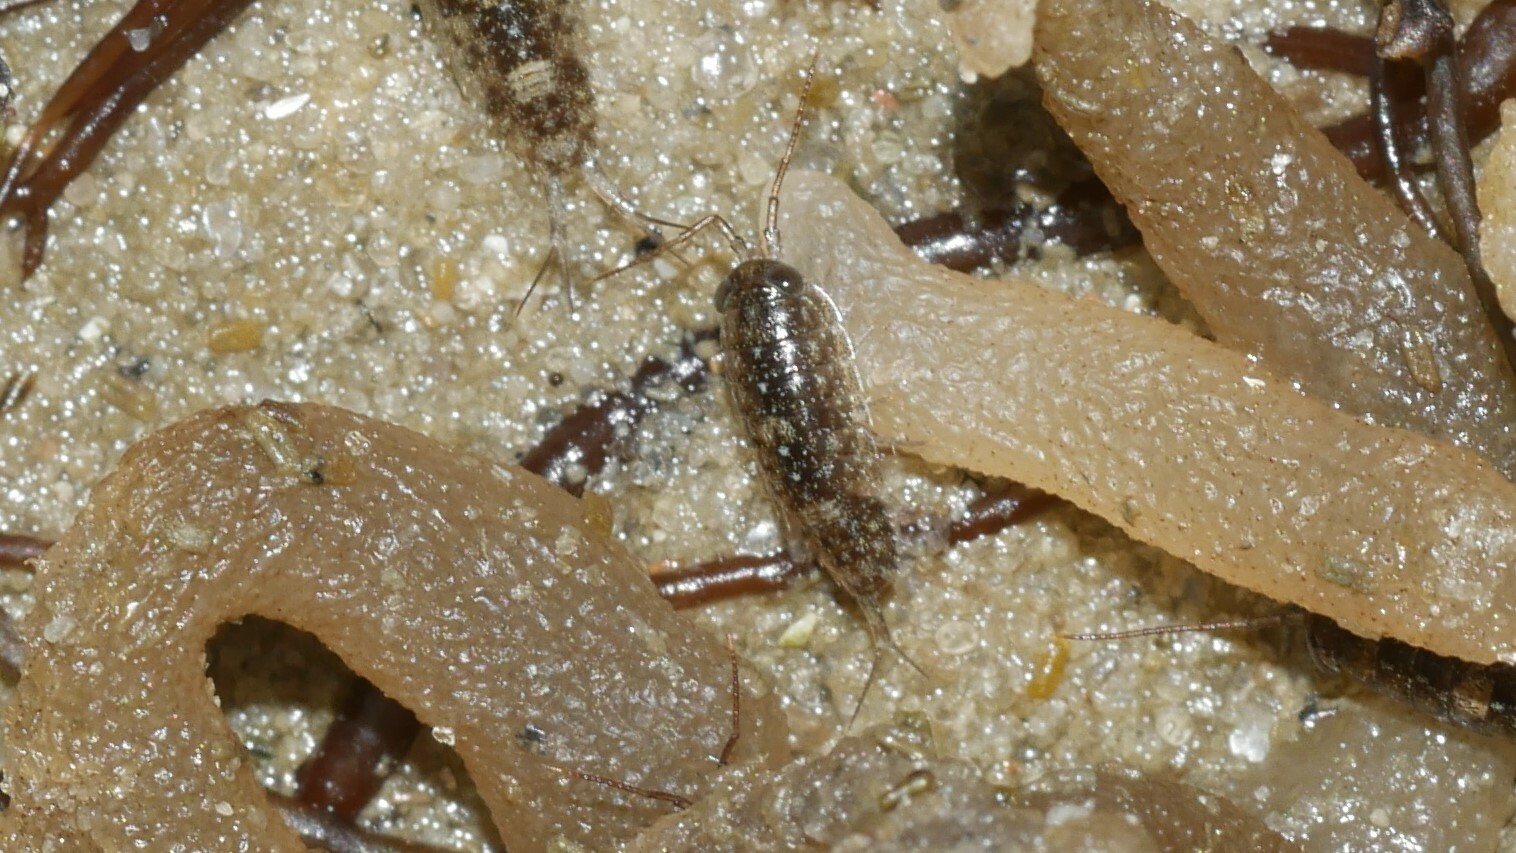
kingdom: Animalia
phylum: Arthropoda
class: Malacostraca
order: Isopoda
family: Ligiidae
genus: Ligia
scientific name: Ligia exotica
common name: Wharf roach
